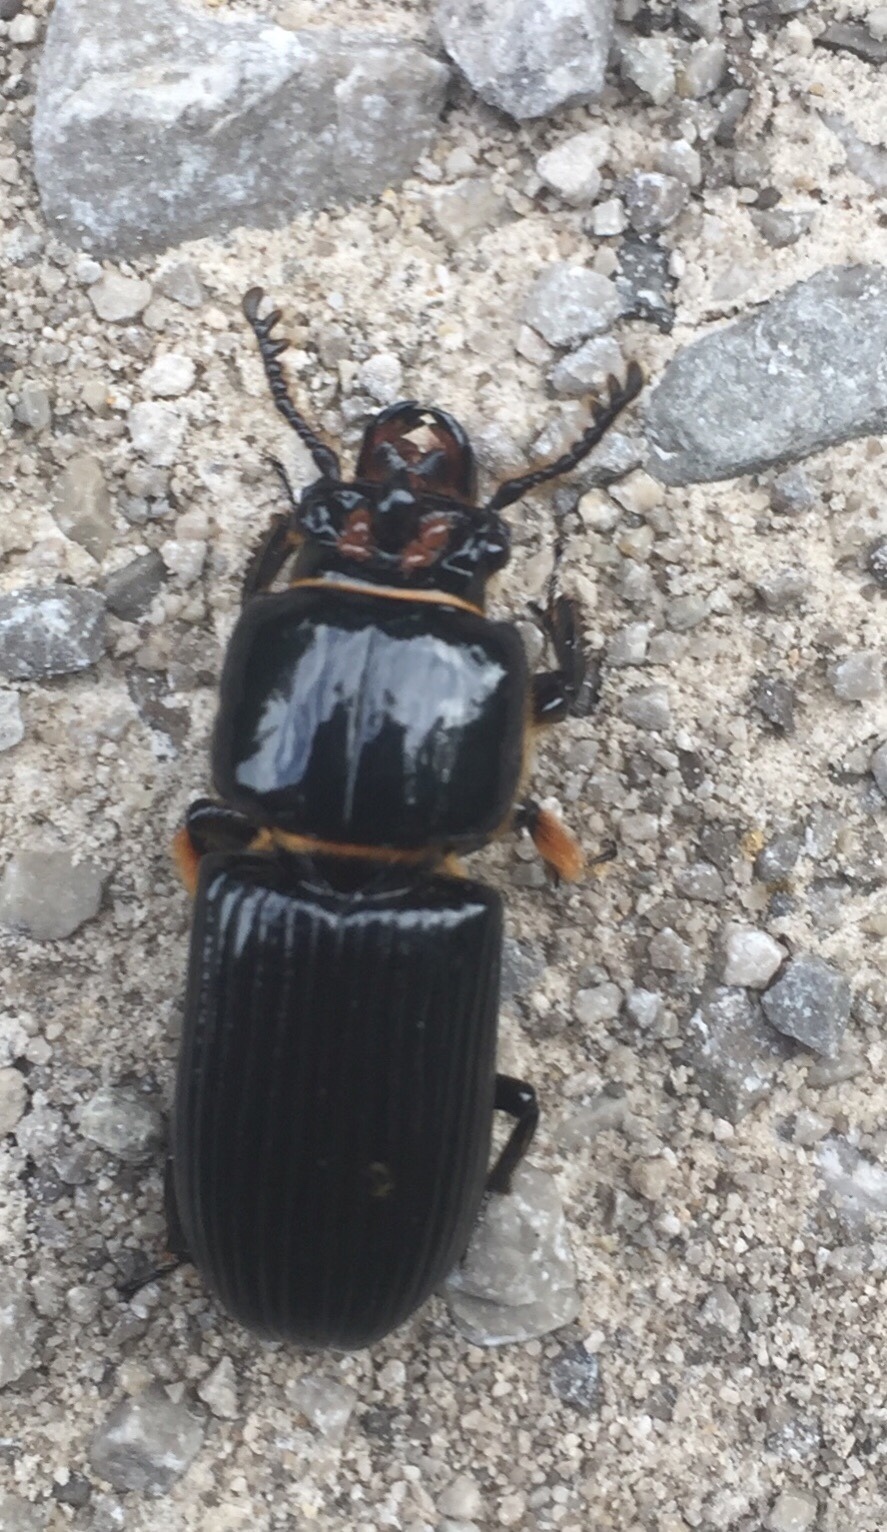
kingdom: Animalia
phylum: Arthropoda
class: Insecta
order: Coleoptera
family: Passalidae
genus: Odontotaenius
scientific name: Odontotaenius disjunctus
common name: Patent leather beetle
